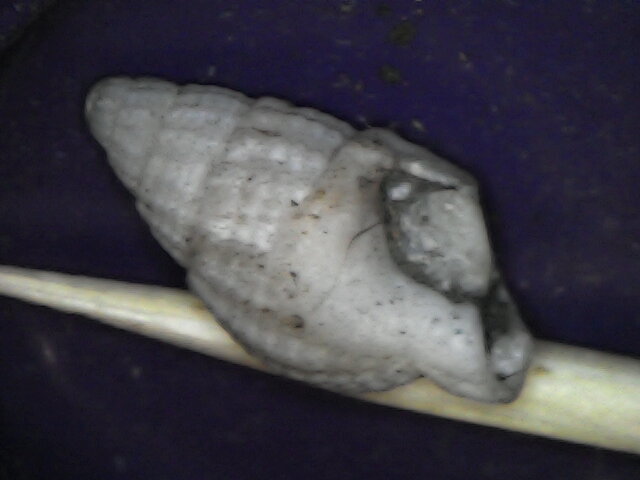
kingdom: Animalia
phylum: Mollusca
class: Gastropoda
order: Neogastropoda
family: Nassariidae
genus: Tritia
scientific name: Tritia nitida
